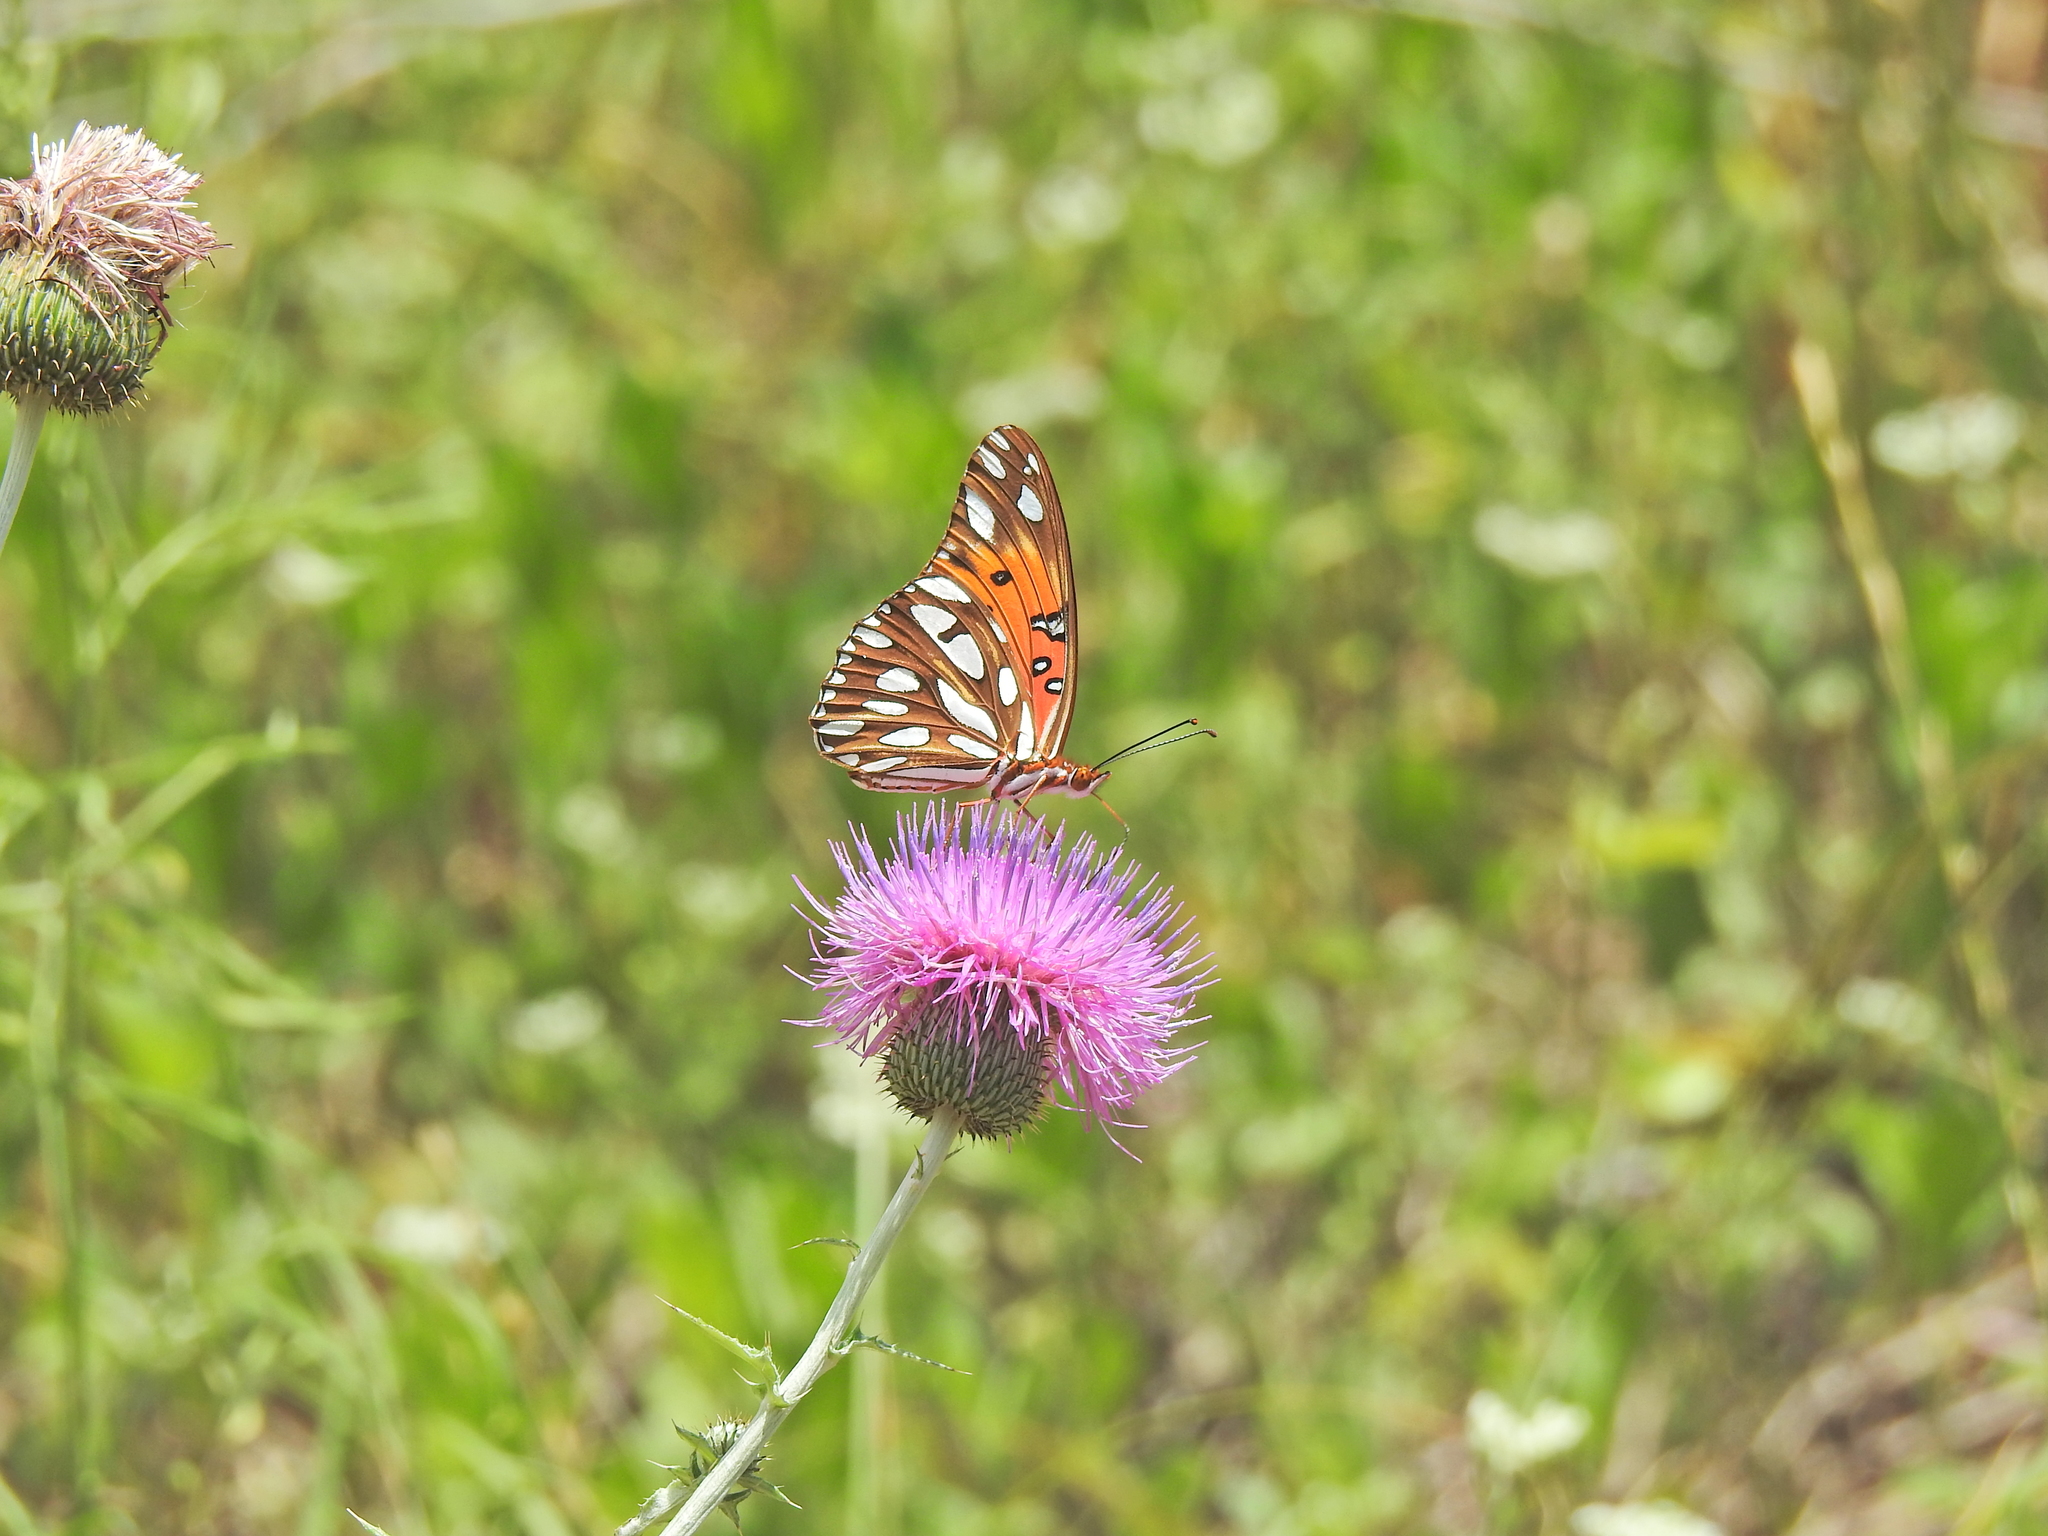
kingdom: Animalia
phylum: Arthropoda
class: Insecta
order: Lepidoptera
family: Nymphalidae
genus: Dione
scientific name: Dione vanillae
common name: Gulf fritillary
